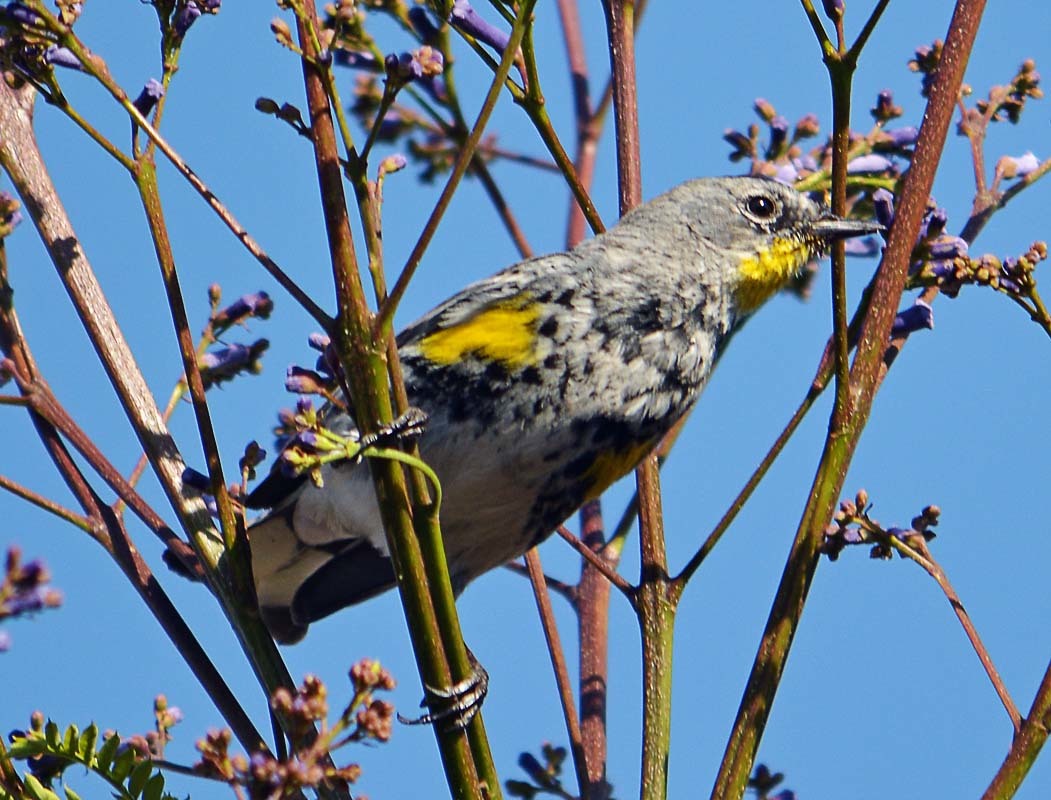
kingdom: Animalia
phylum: Chordata
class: Aves
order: Passeriformes
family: Parulidae
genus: Setophaga
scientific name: Setophaga coronata
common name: Myrtle warbler
